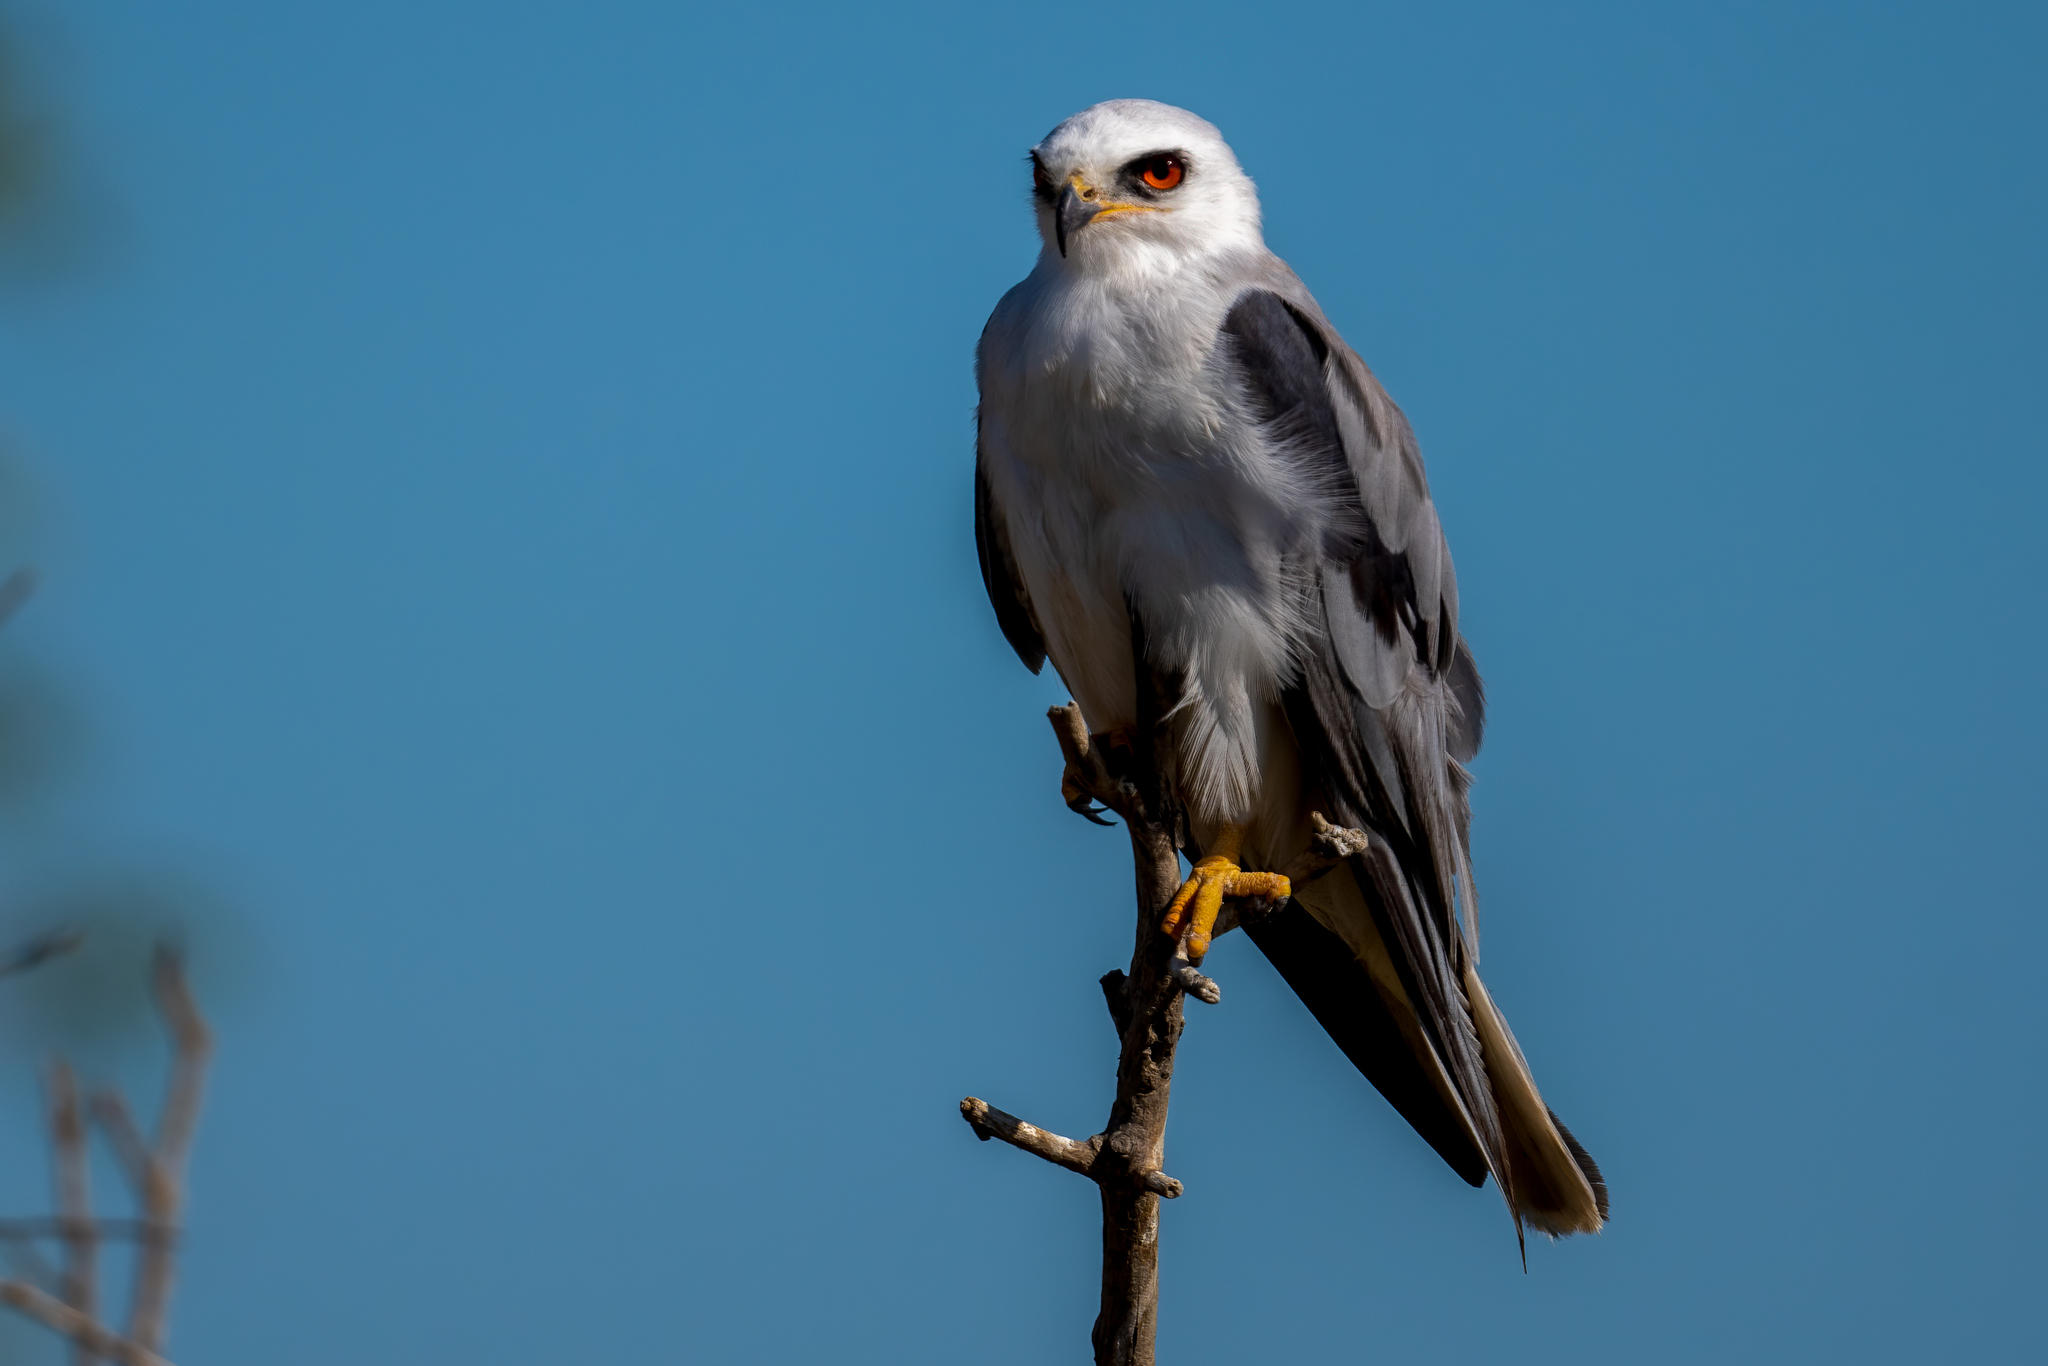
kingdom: Animalia
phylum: Chordata
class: Aves
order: Accipitriformes
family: Accipitridae
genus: Elanus
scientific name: Elanus leucurus
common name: White-tailed kite
